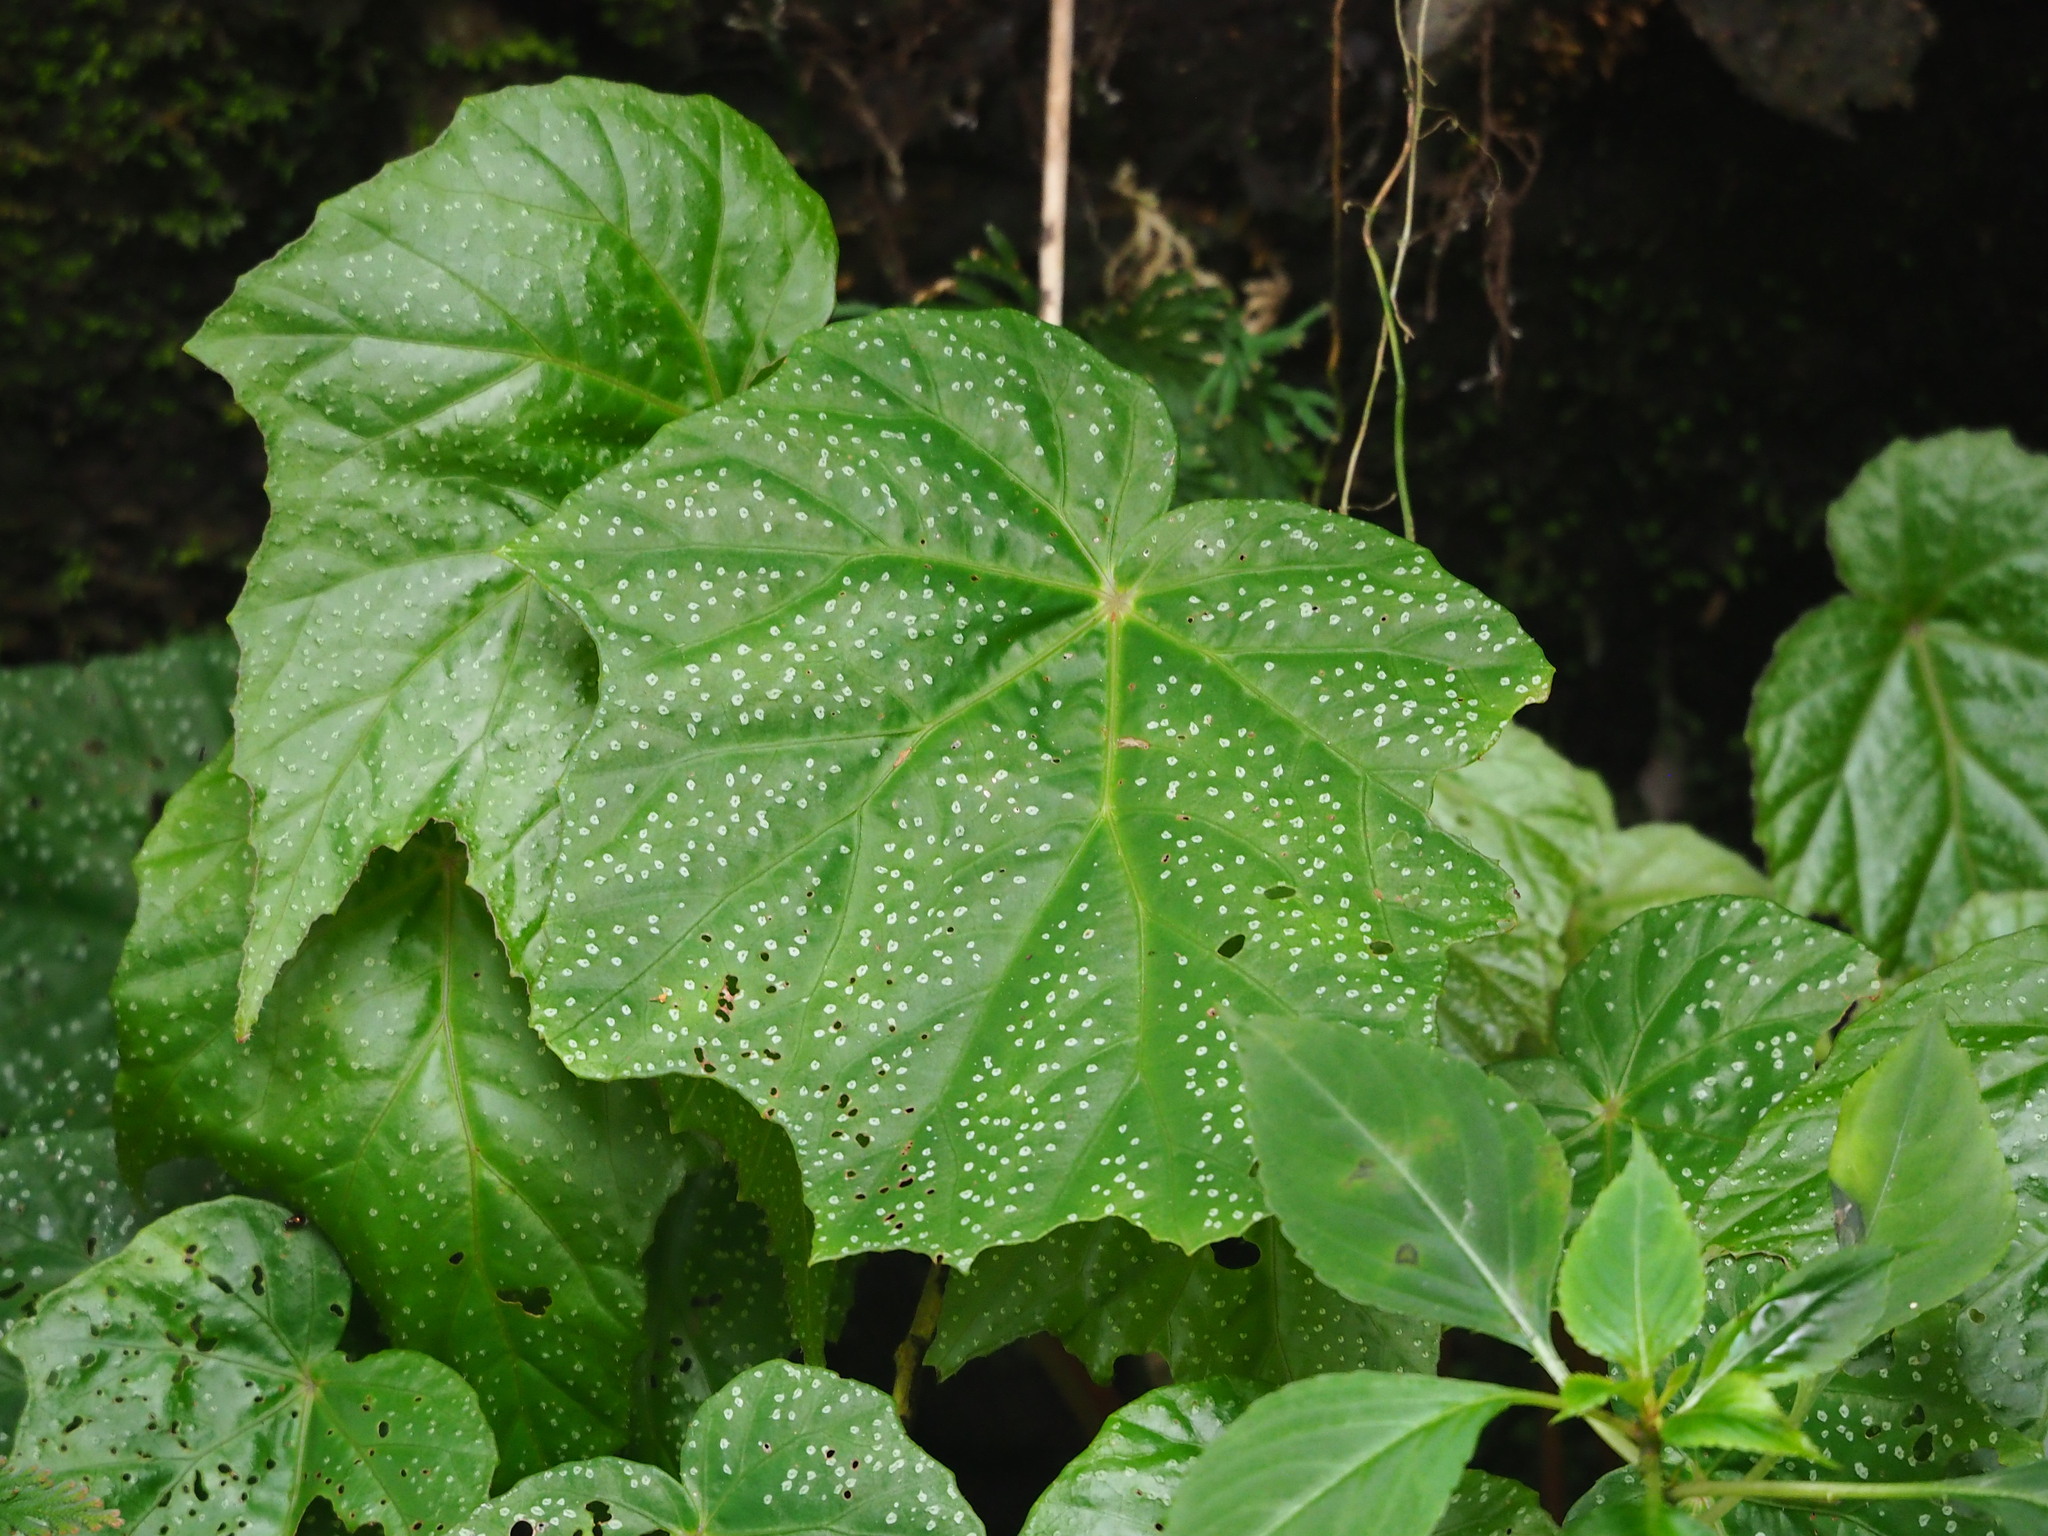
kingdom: Plantae
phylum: Tracheophyta
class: Magnoliopsida
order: Cucurbitales
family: Begoniaceae
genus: Begonia
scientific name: Begonia formosana
